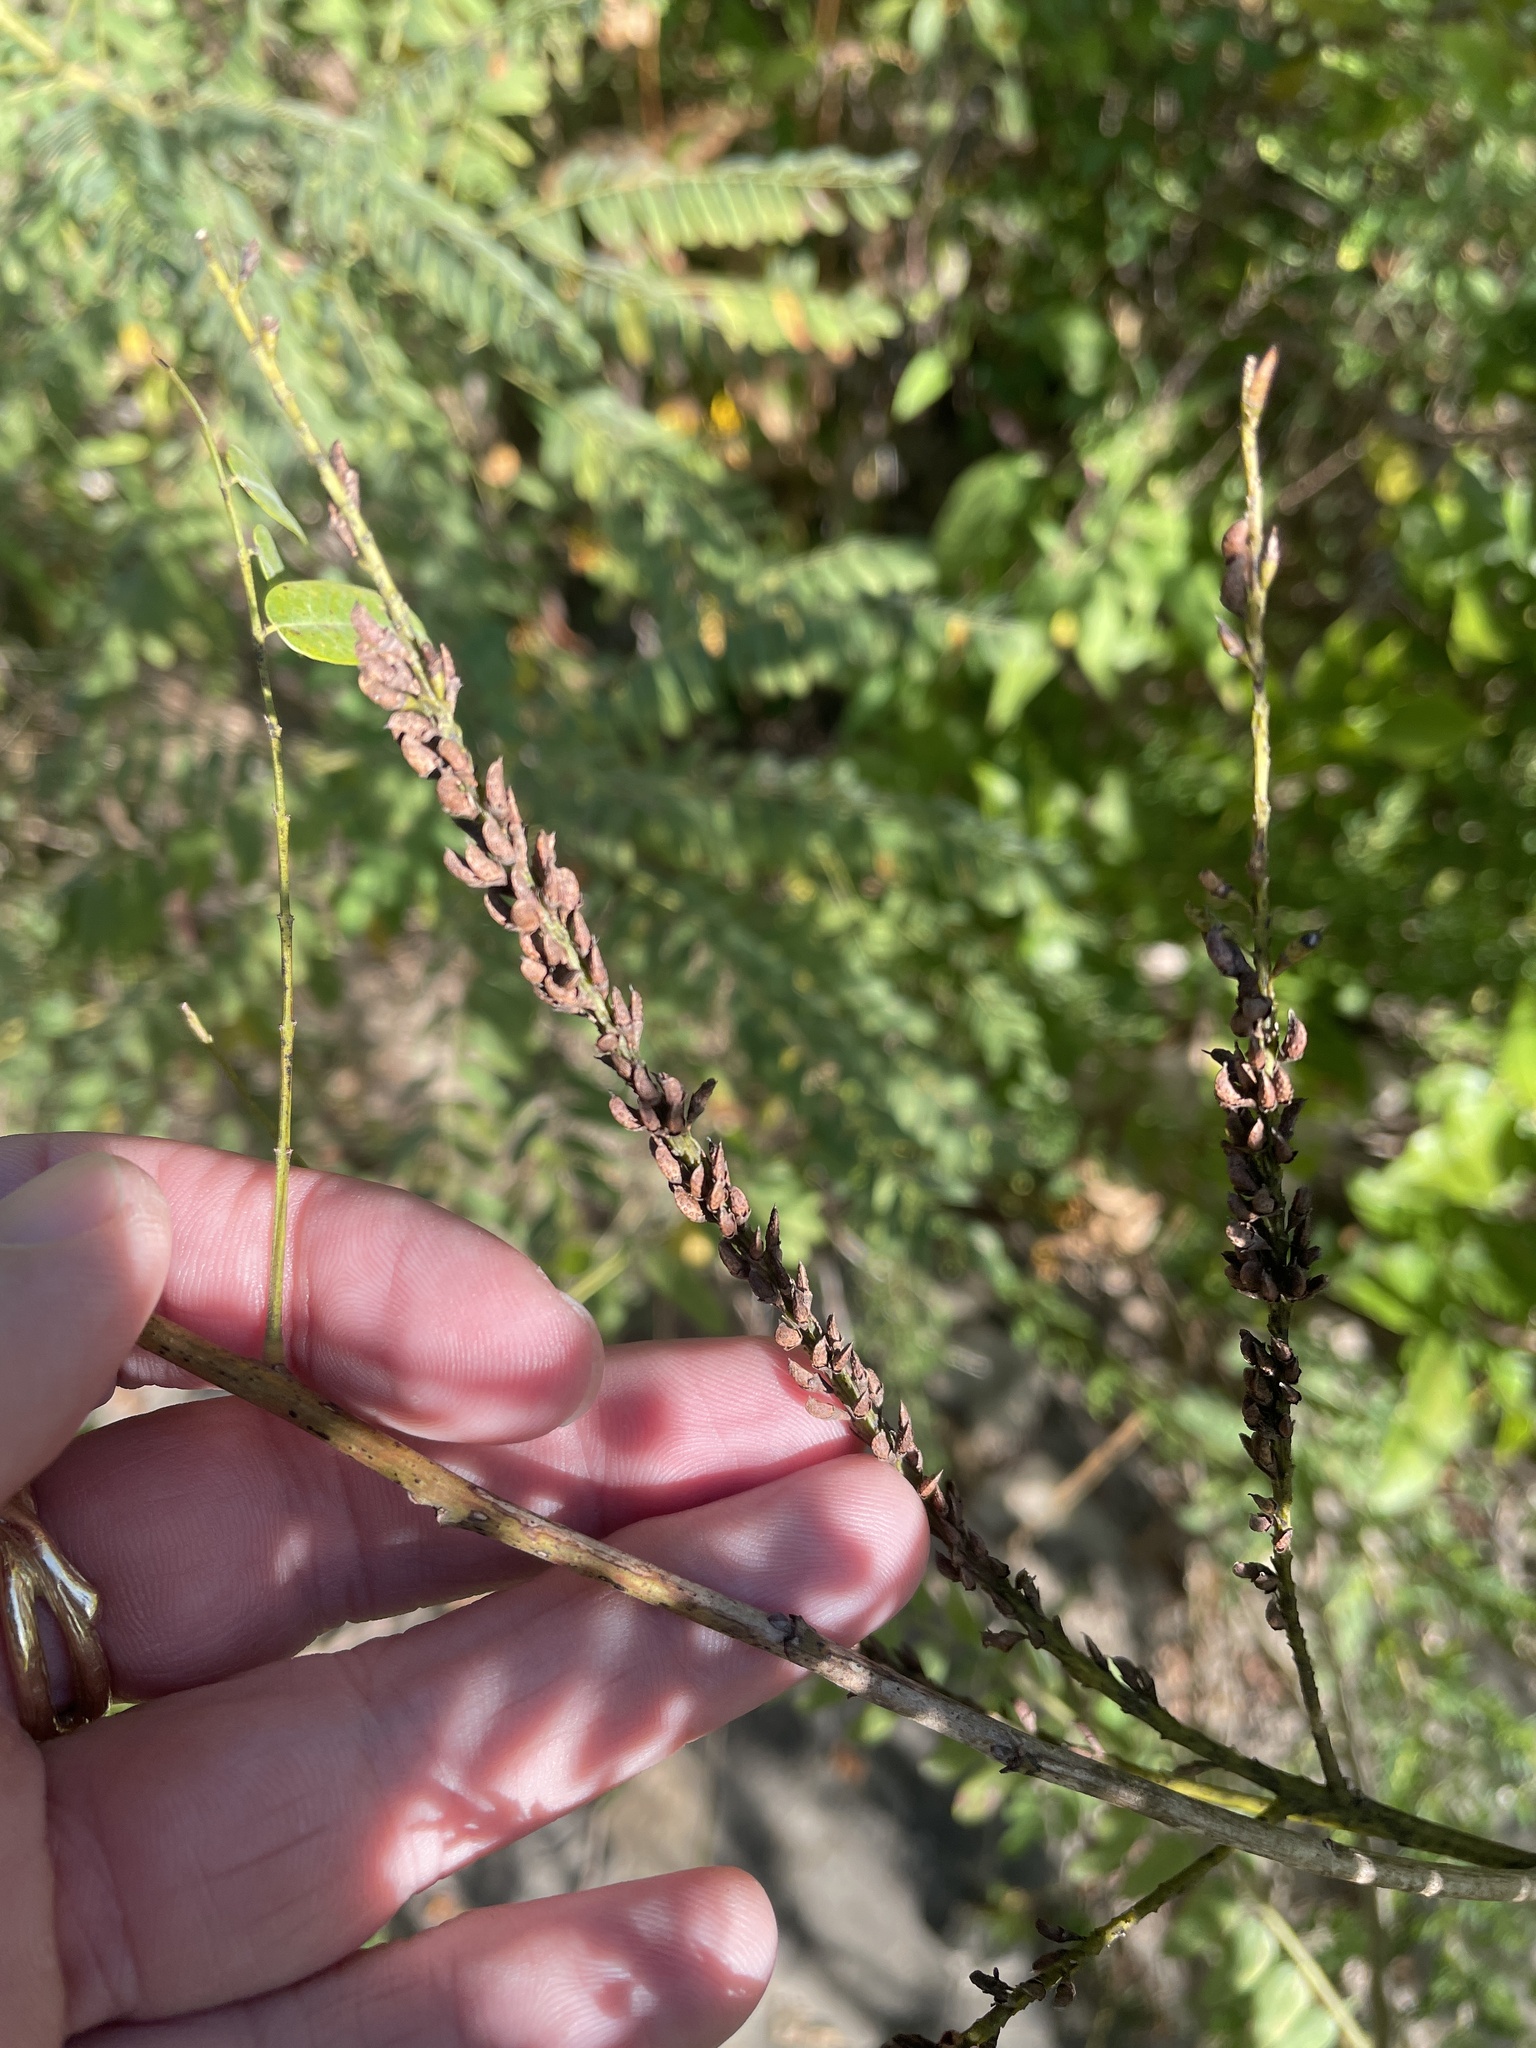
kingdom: Plantae
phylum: Tracheophyta
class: Magnoliopsida
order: Fabales
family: Fabaceae
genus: Amorpha
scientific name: Amorpha fruticosa
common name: False indigo
